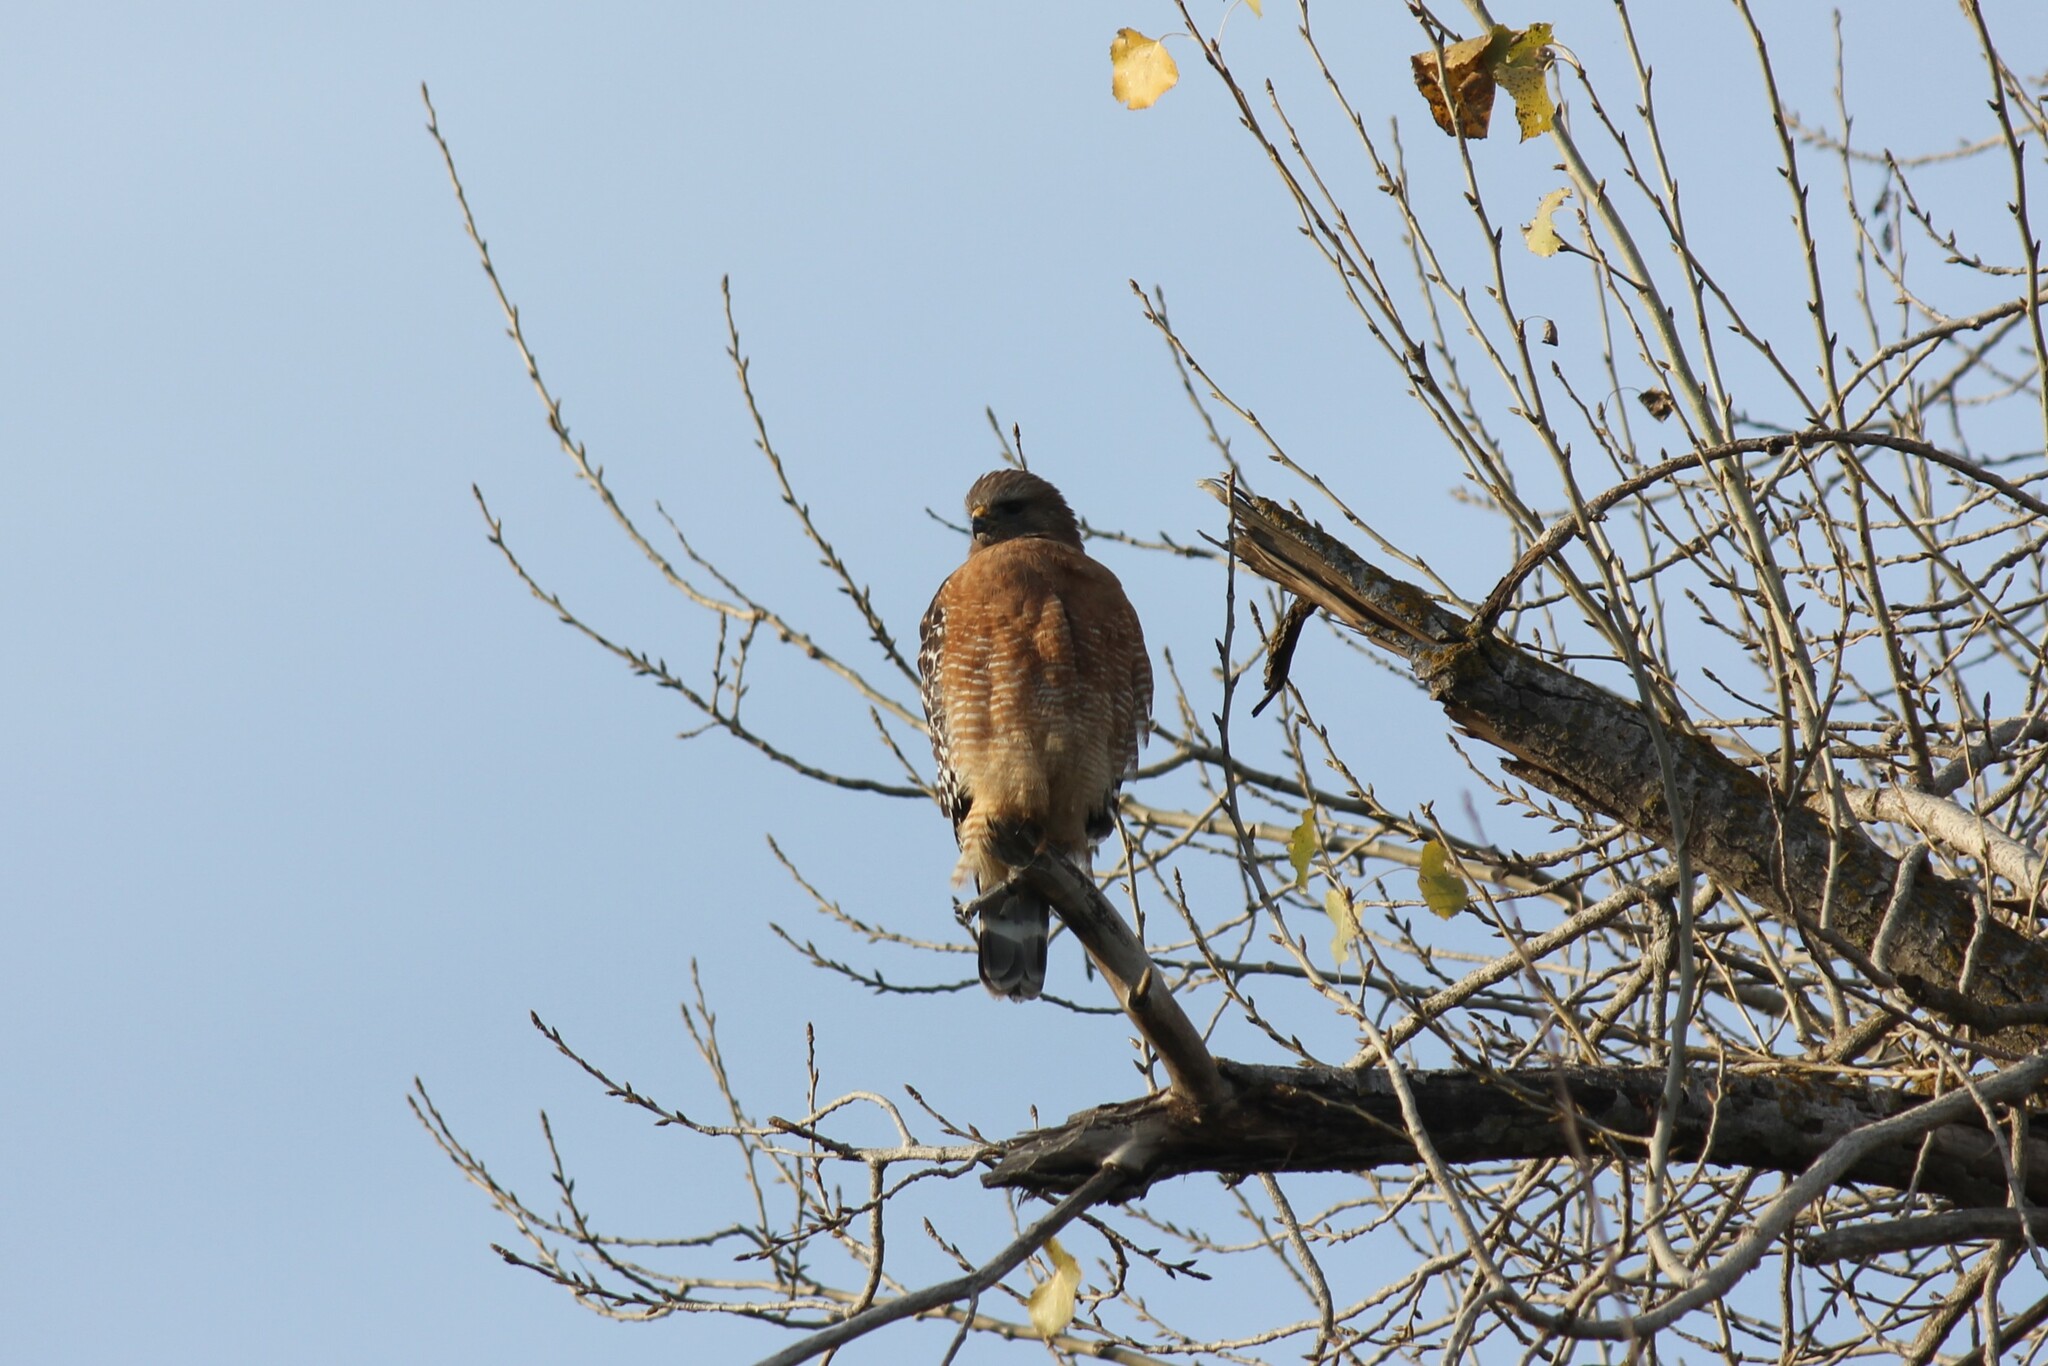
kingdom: Animalia
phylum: Chordata
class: Aves
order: Accipitriformes
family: Accipitridae
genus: Buteo
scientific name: Buteo lineatus
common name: Red-shouldered hawk
